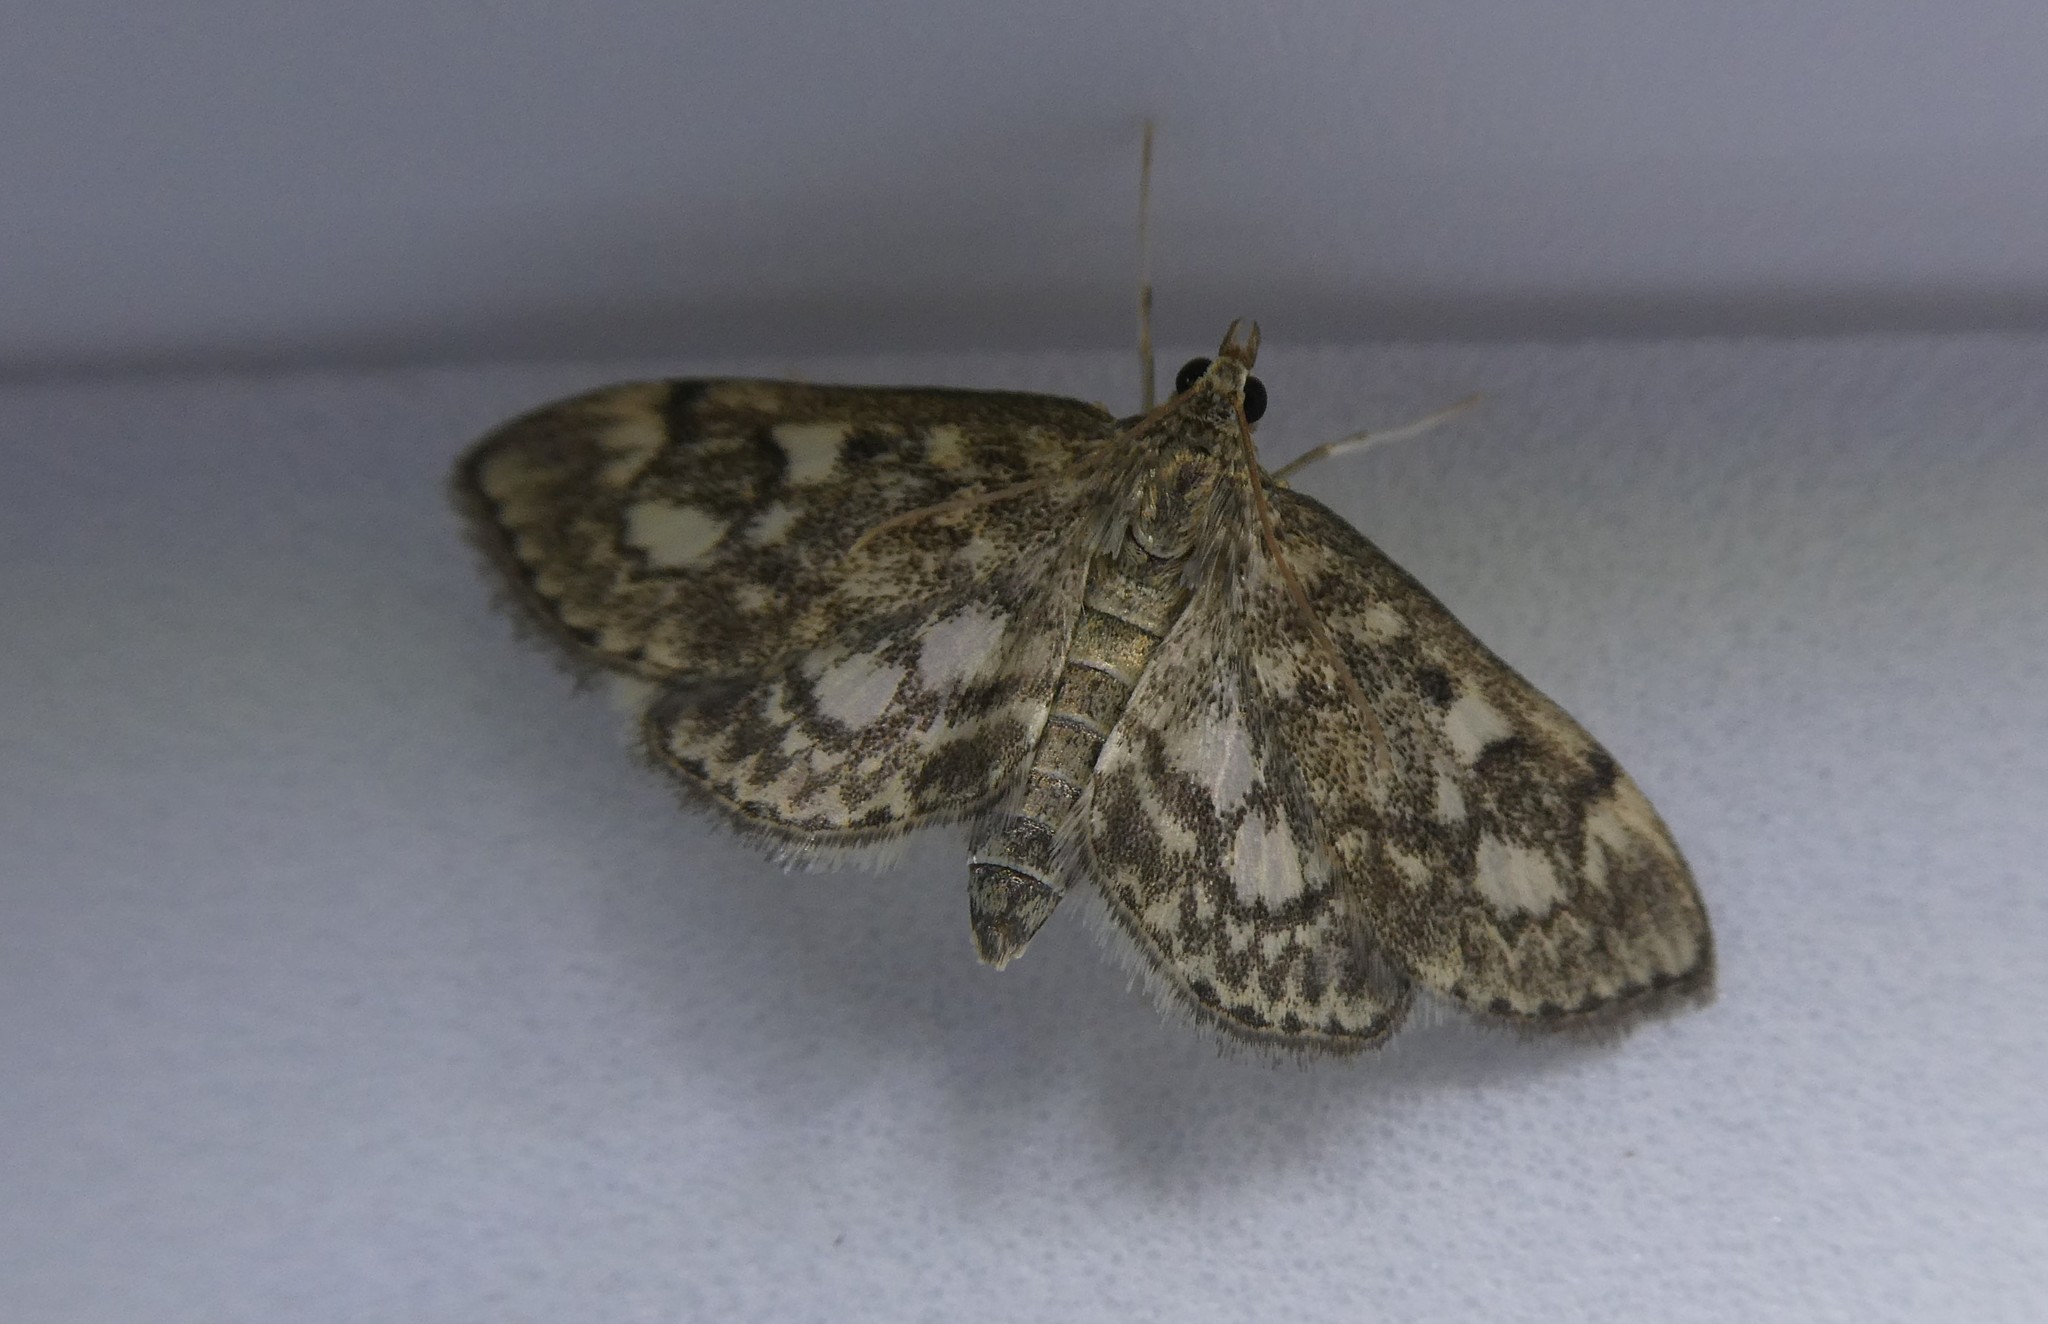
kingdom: Animalia
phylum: Arthropoda
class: Insecta
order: Lepidoptera
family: Crambidae
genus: Anania
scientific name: Anania
